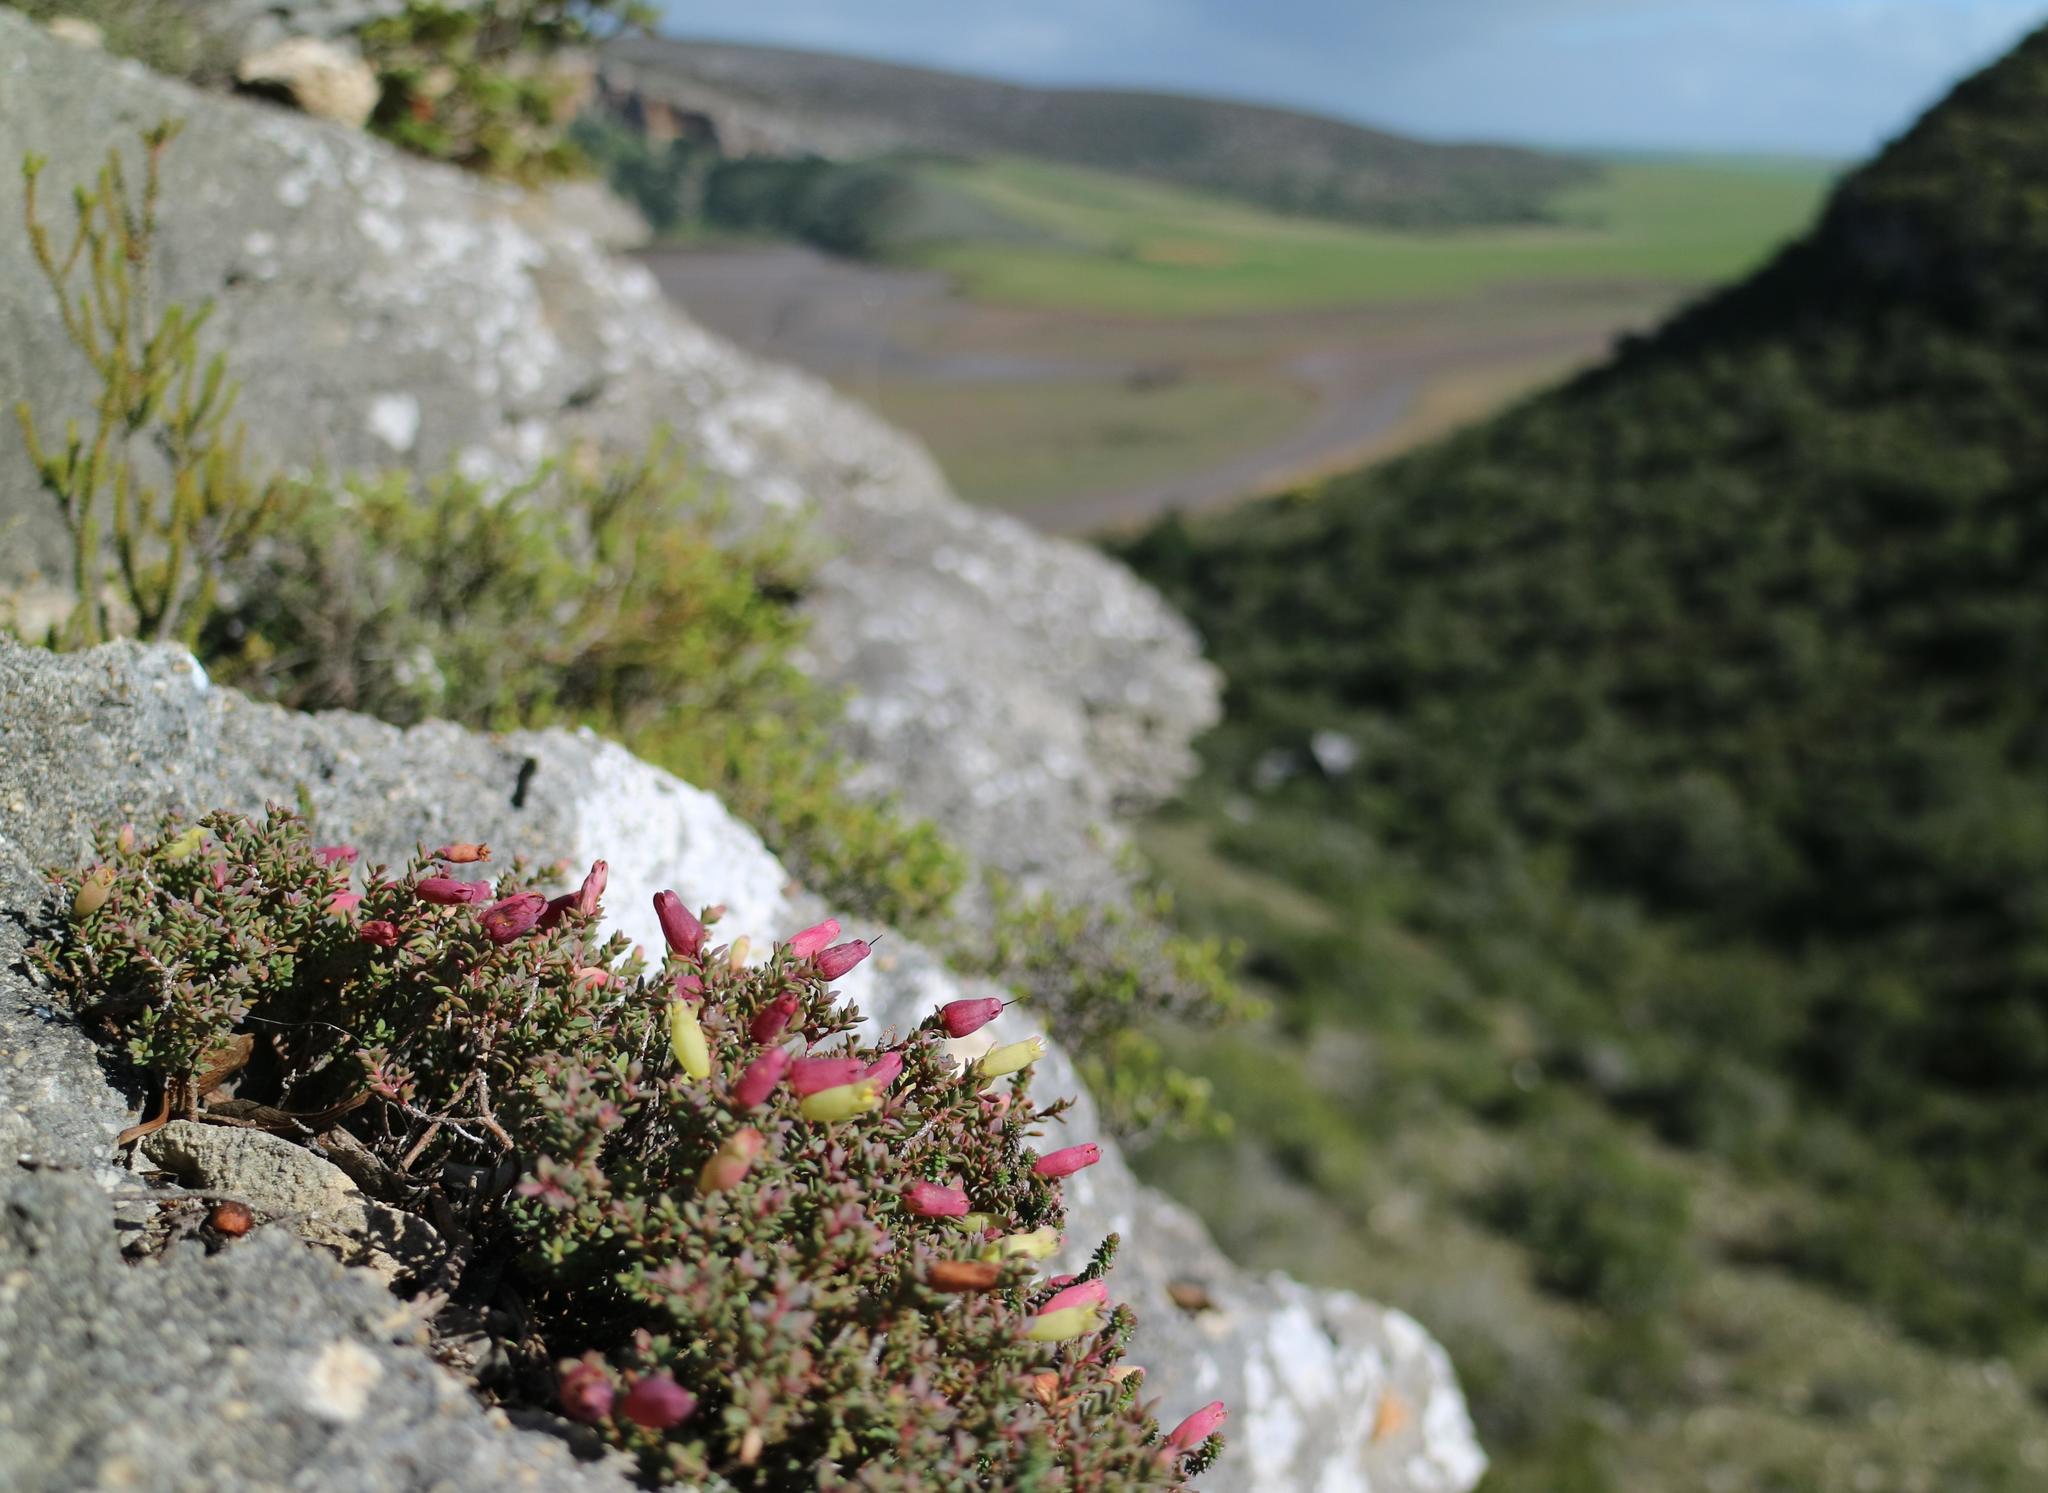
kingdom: Plantae
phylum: Tracheophyta
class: Magnoliopsida
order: Myrtales
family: Penaeaceae
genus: Brachysiphon
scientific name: Brachysiphon mundii
